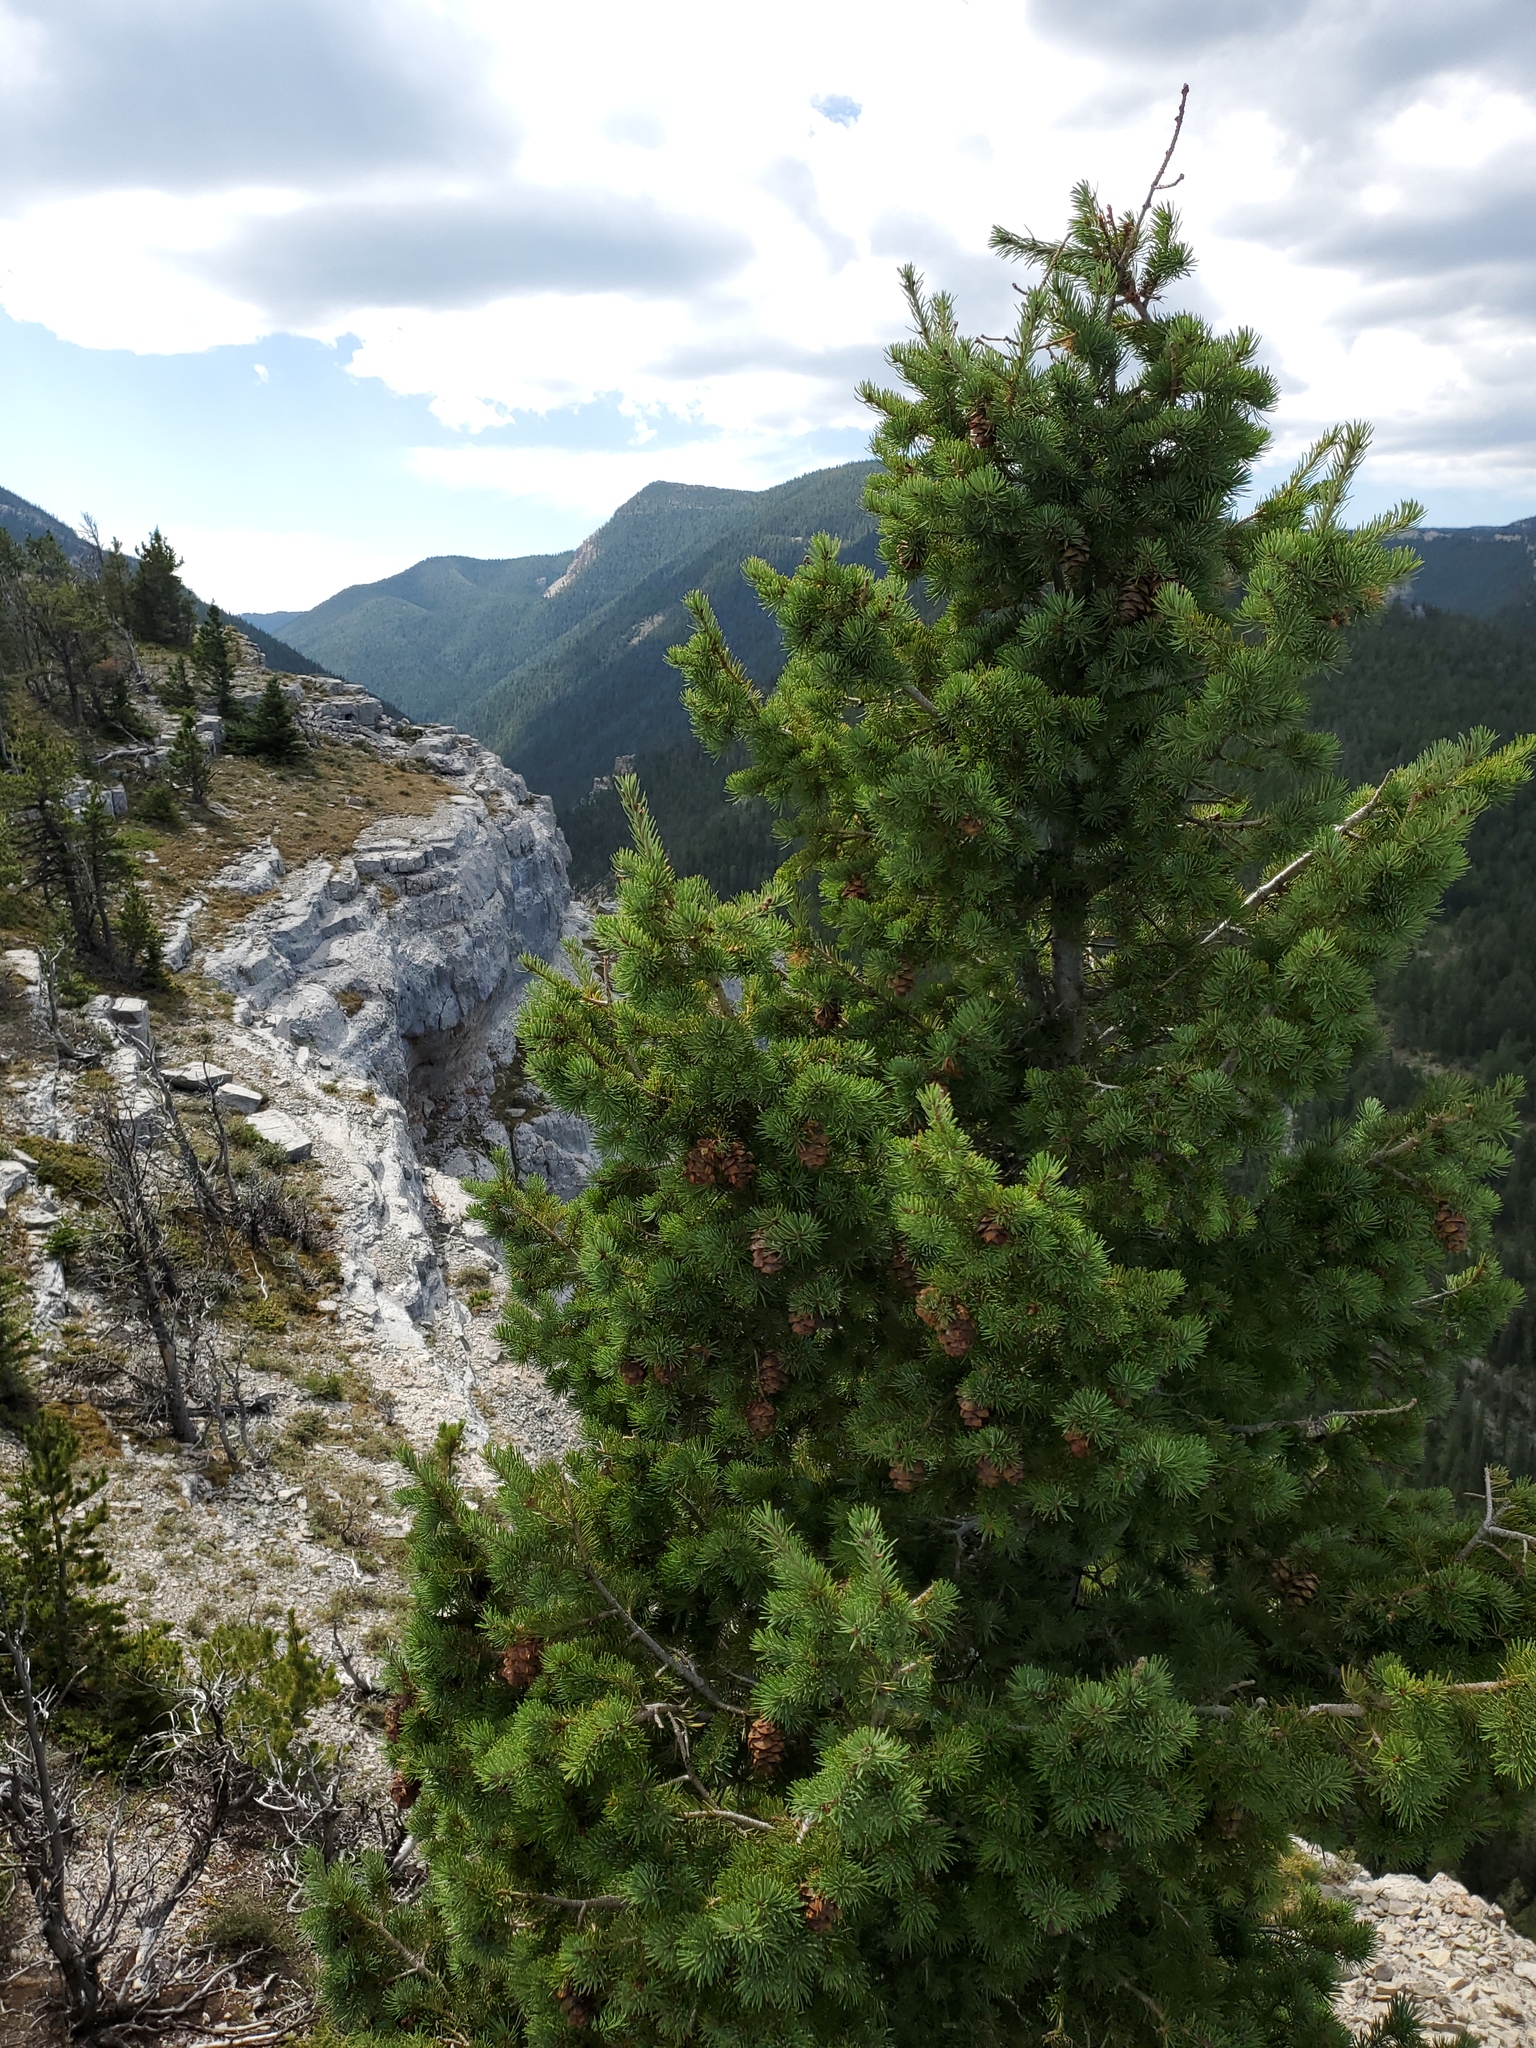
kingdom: Plantae
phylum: Tracheophyta
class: Pinopsida
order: Pinales
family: Pinaceae
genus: Pseudotsuga
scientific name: Pseudotsuga menziesii
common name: Douglas fir
